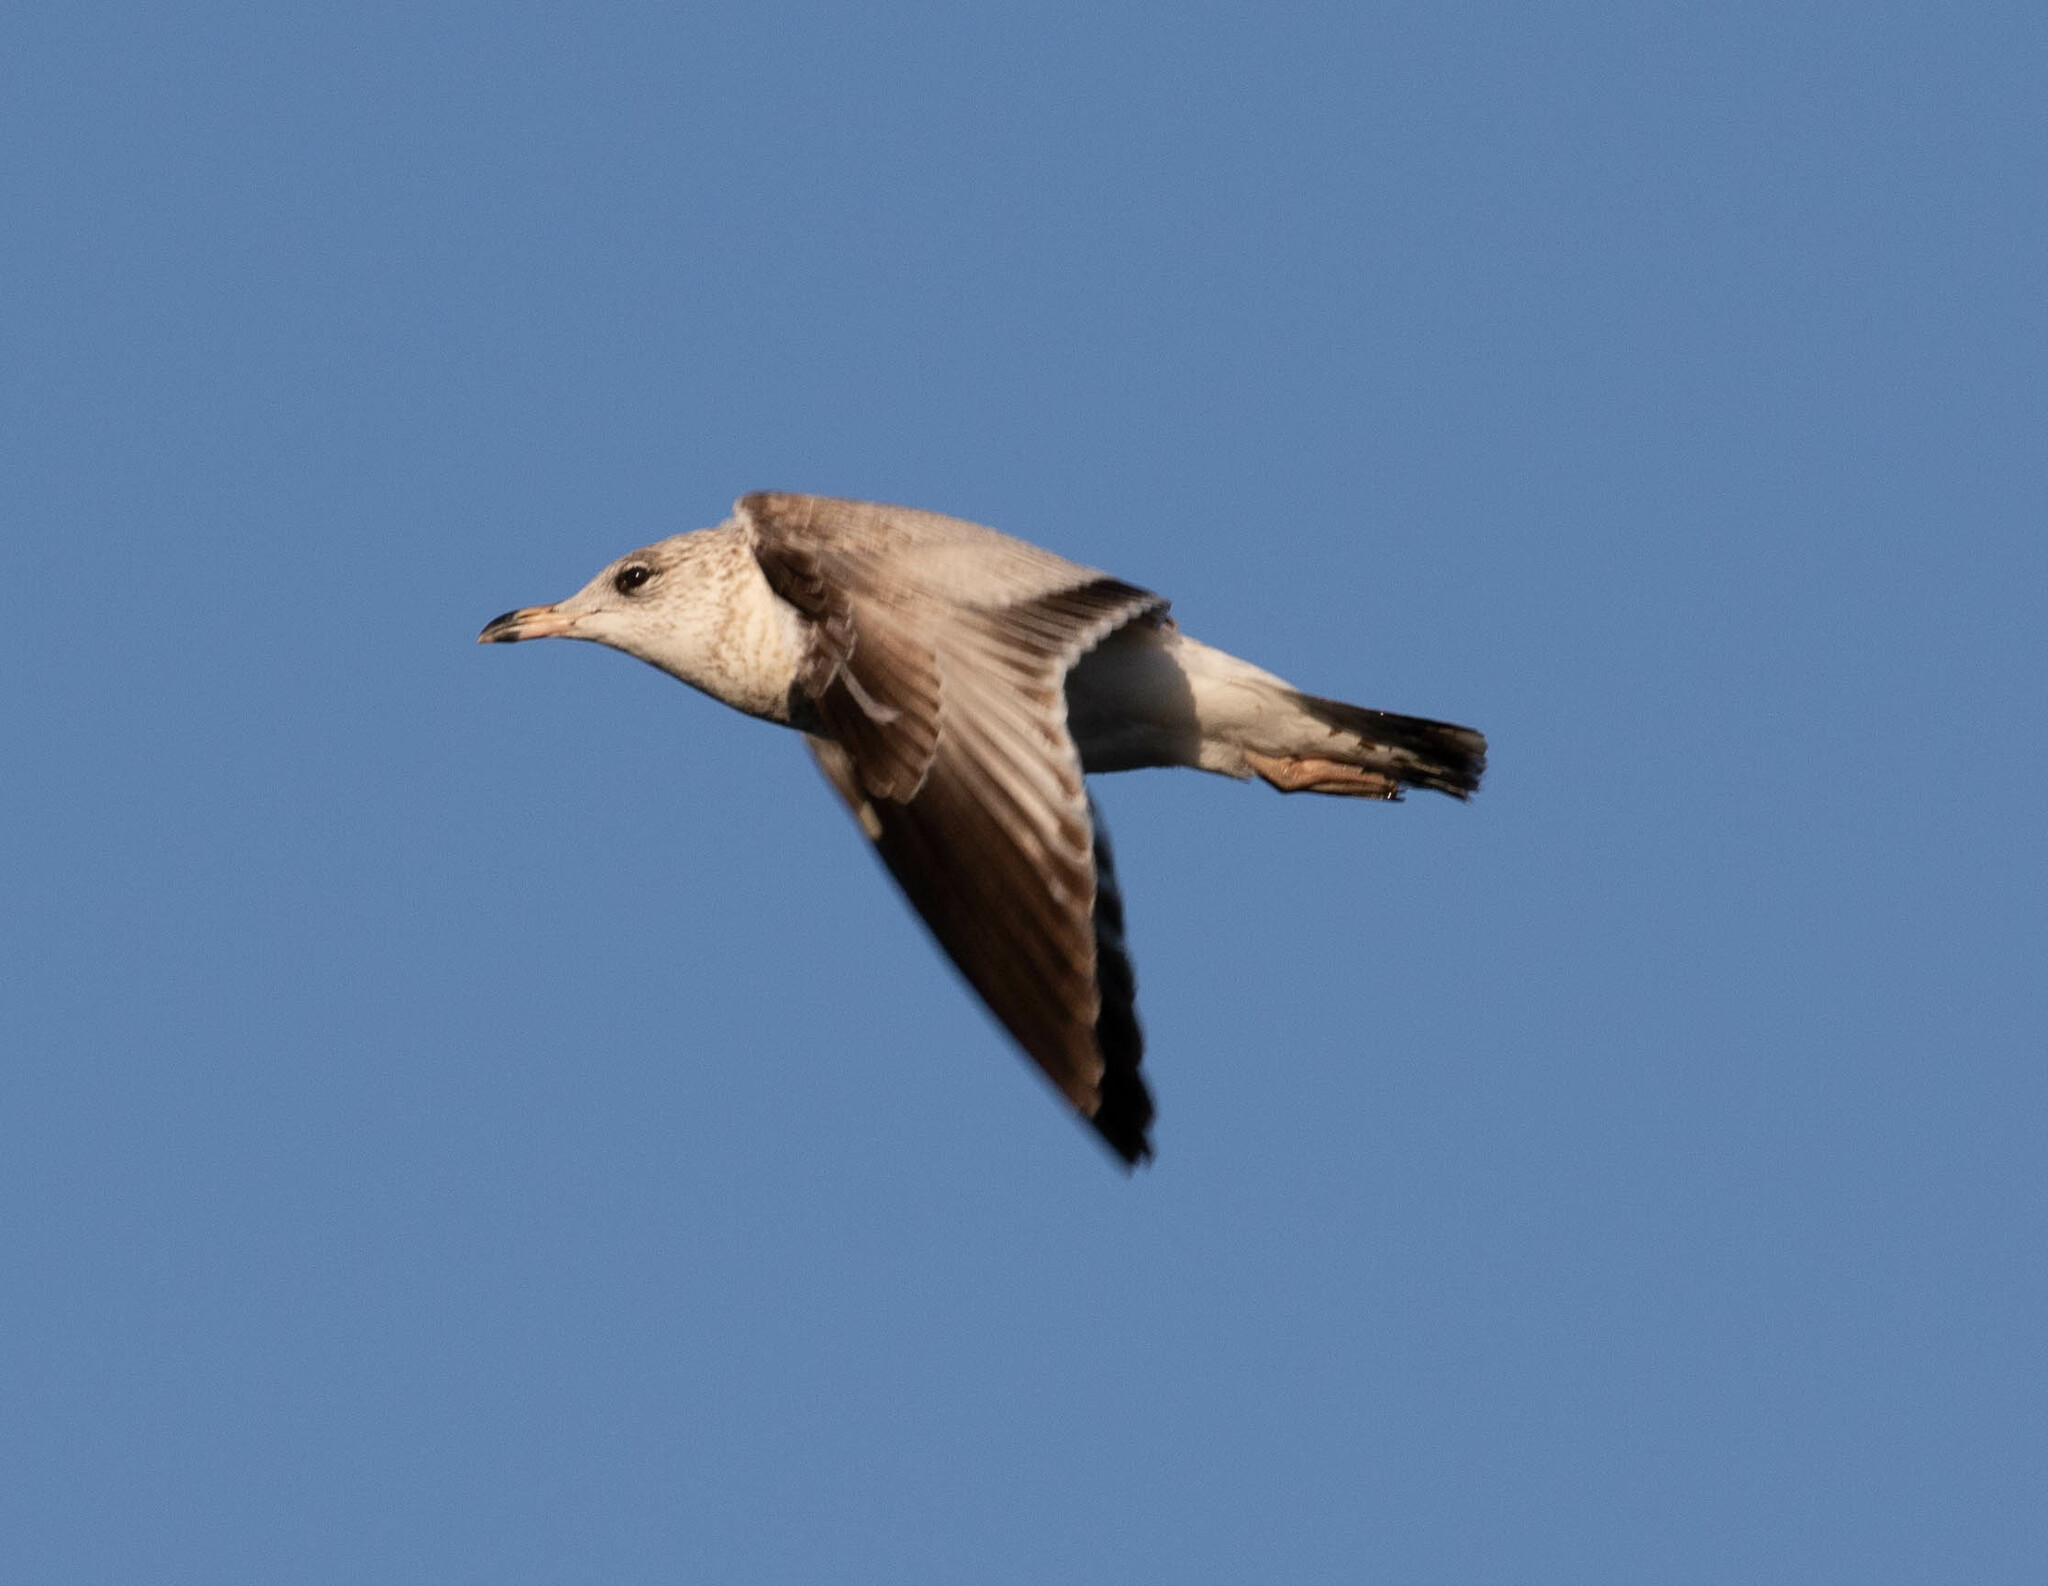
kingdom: Animalia
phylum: Chordata
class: Aves
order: Charadriiformes
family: Laridae
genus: Larus
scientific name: Larus delawarensis
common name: Ring-billed gull
